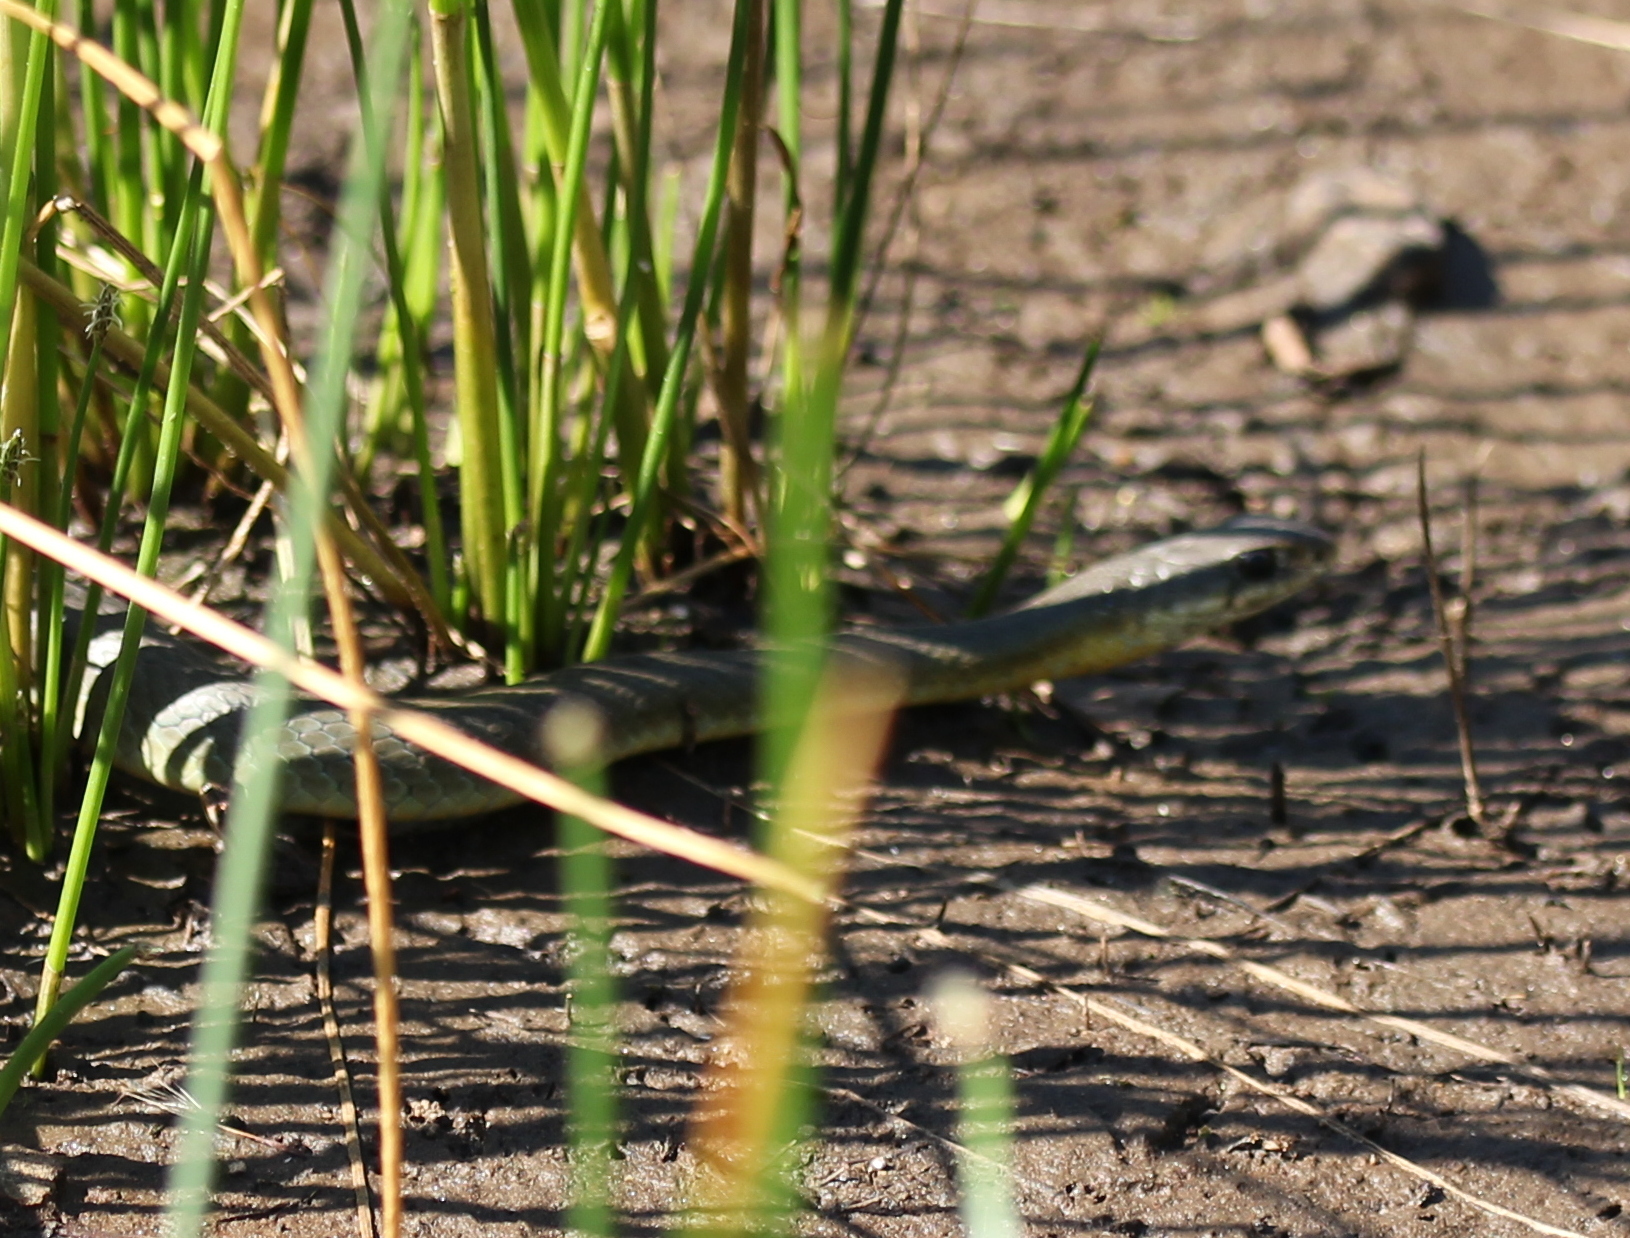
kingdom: Animalia
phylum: Chordata
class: Squamata
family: Colubridae
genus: Coluber
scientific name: Coluber constrictor
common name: Eastern racer
